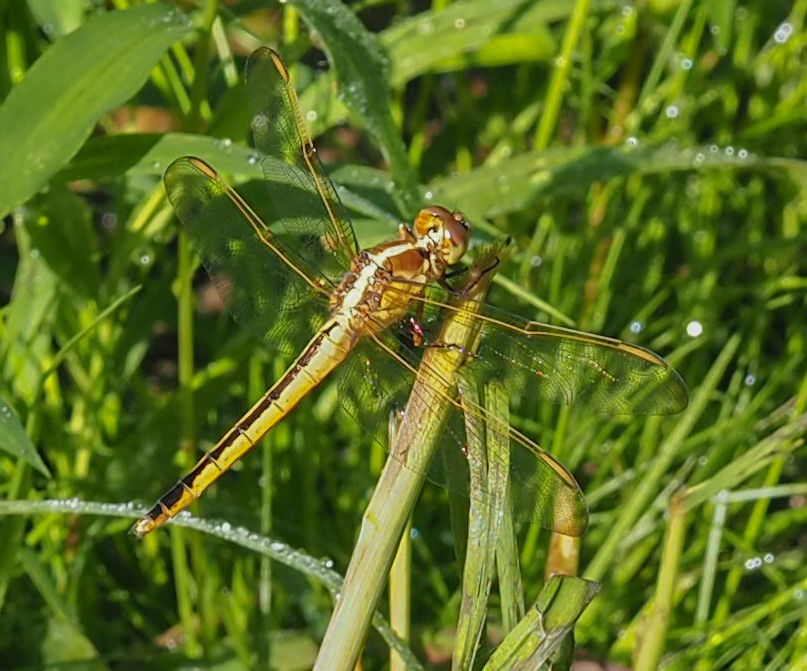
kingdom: Animalia
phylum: Arthropoda
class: Insecta
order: Odonata
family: Libellulidae
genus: Libellula
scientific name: Libellula needhami
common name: Needham's skimmer
